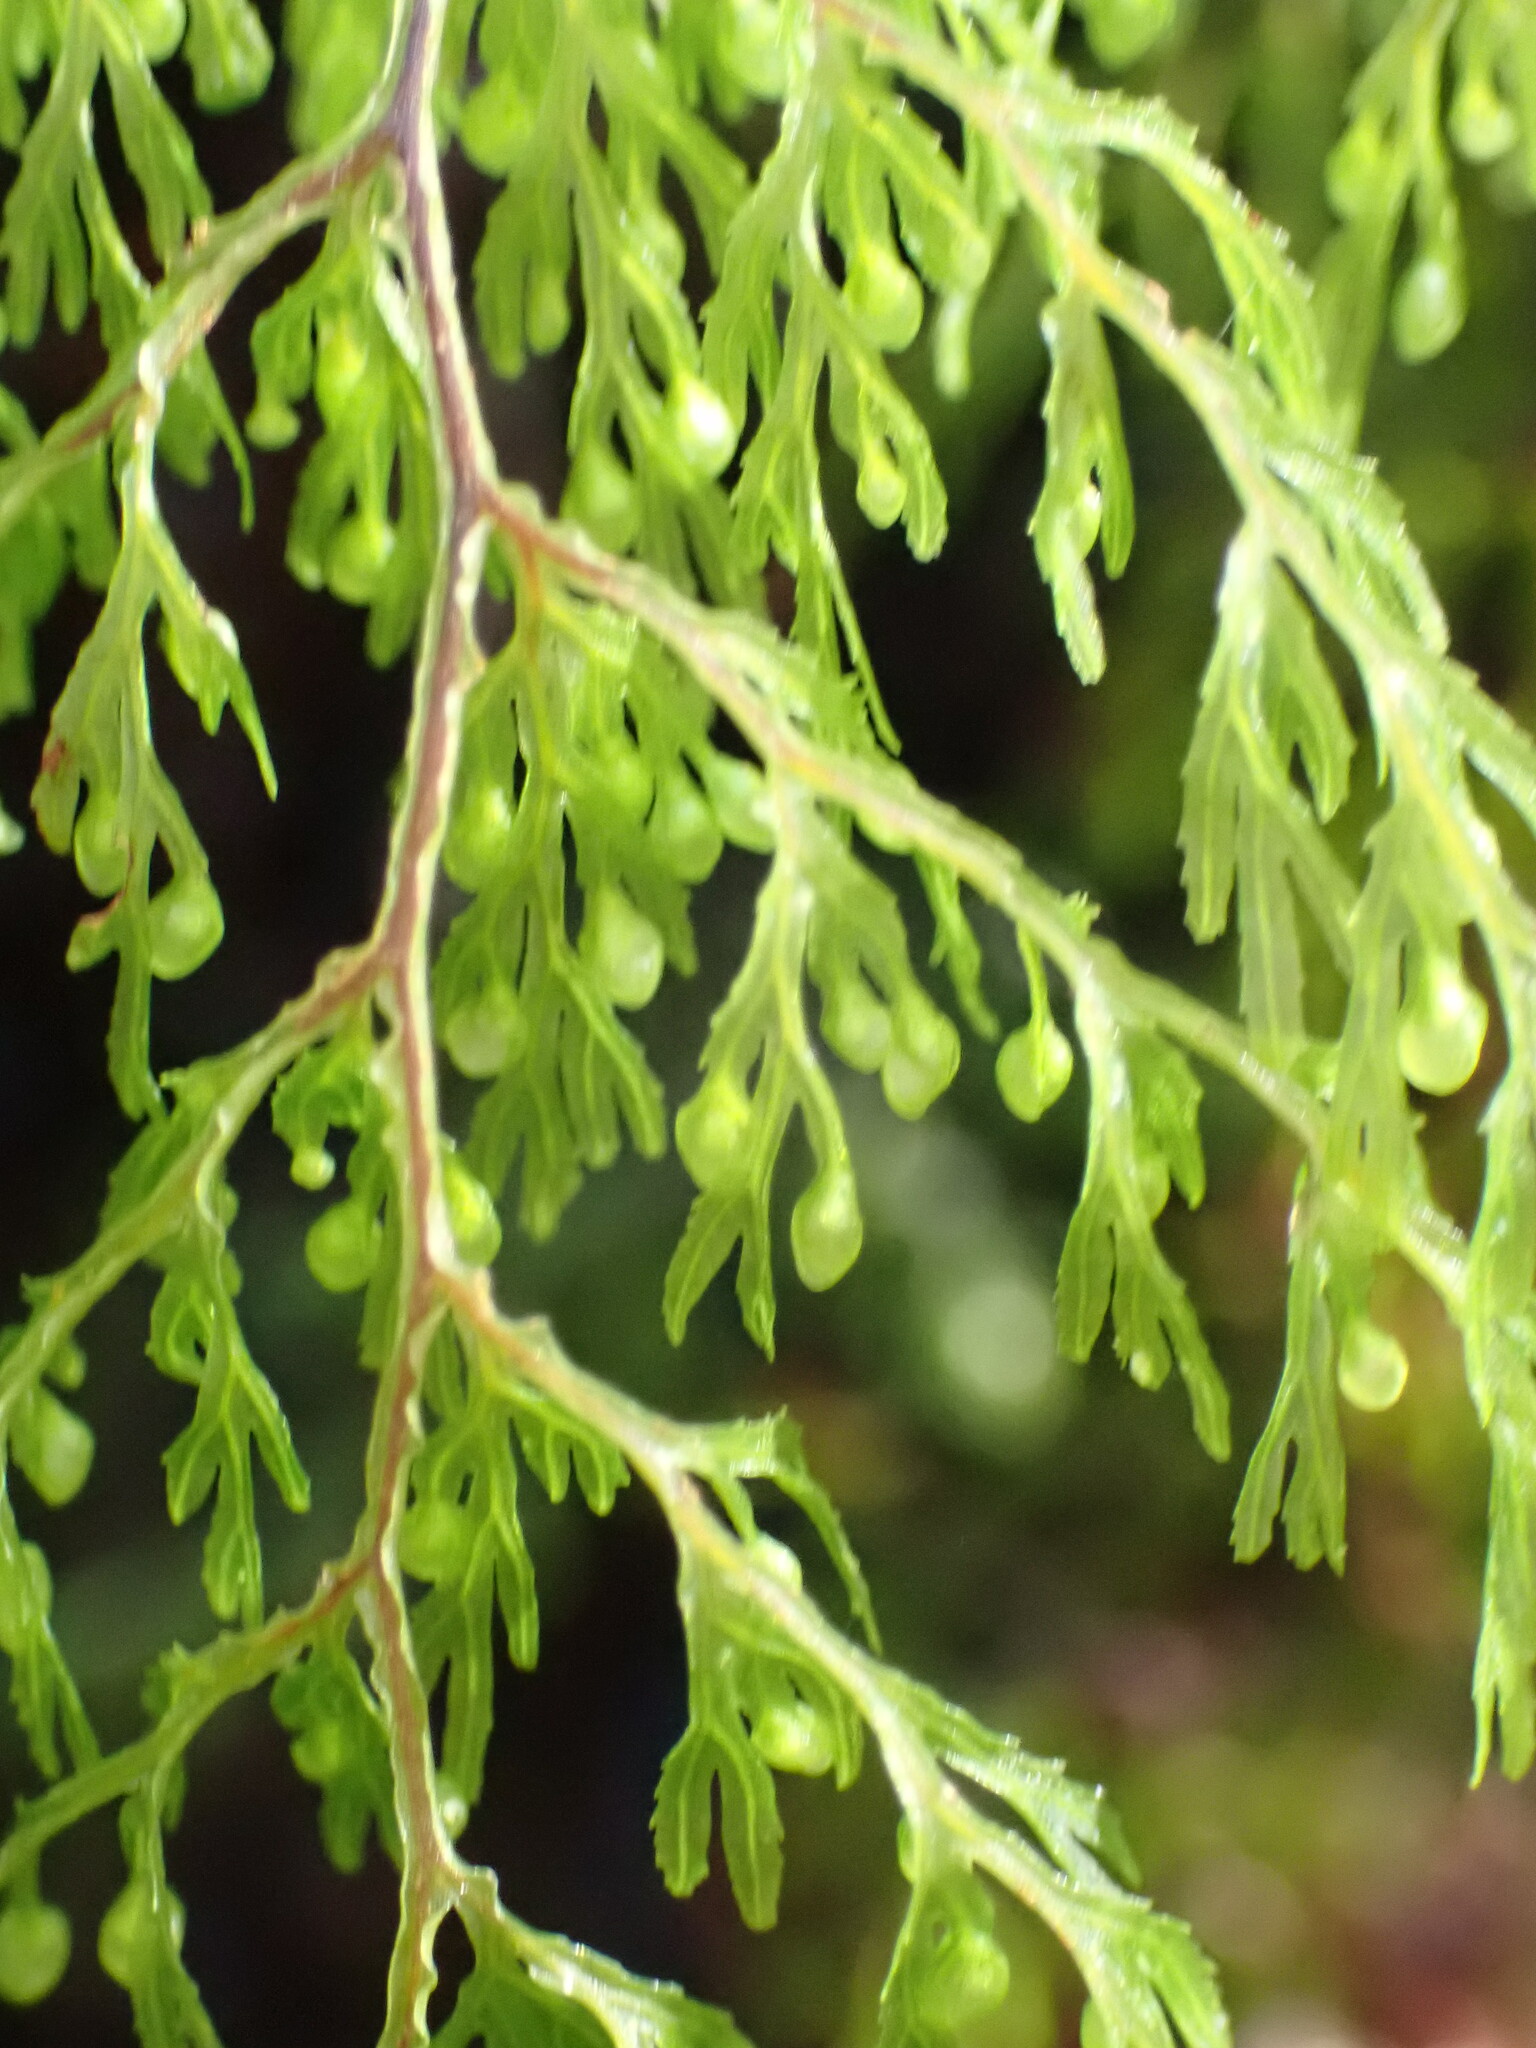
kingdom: Plantae
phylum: Tracheophyta
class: Polypodiopsida
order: Hymenophyllales
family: Hymenophyllaceae
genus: Hymenophyllum
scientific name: Hymenophyllum bivalve
